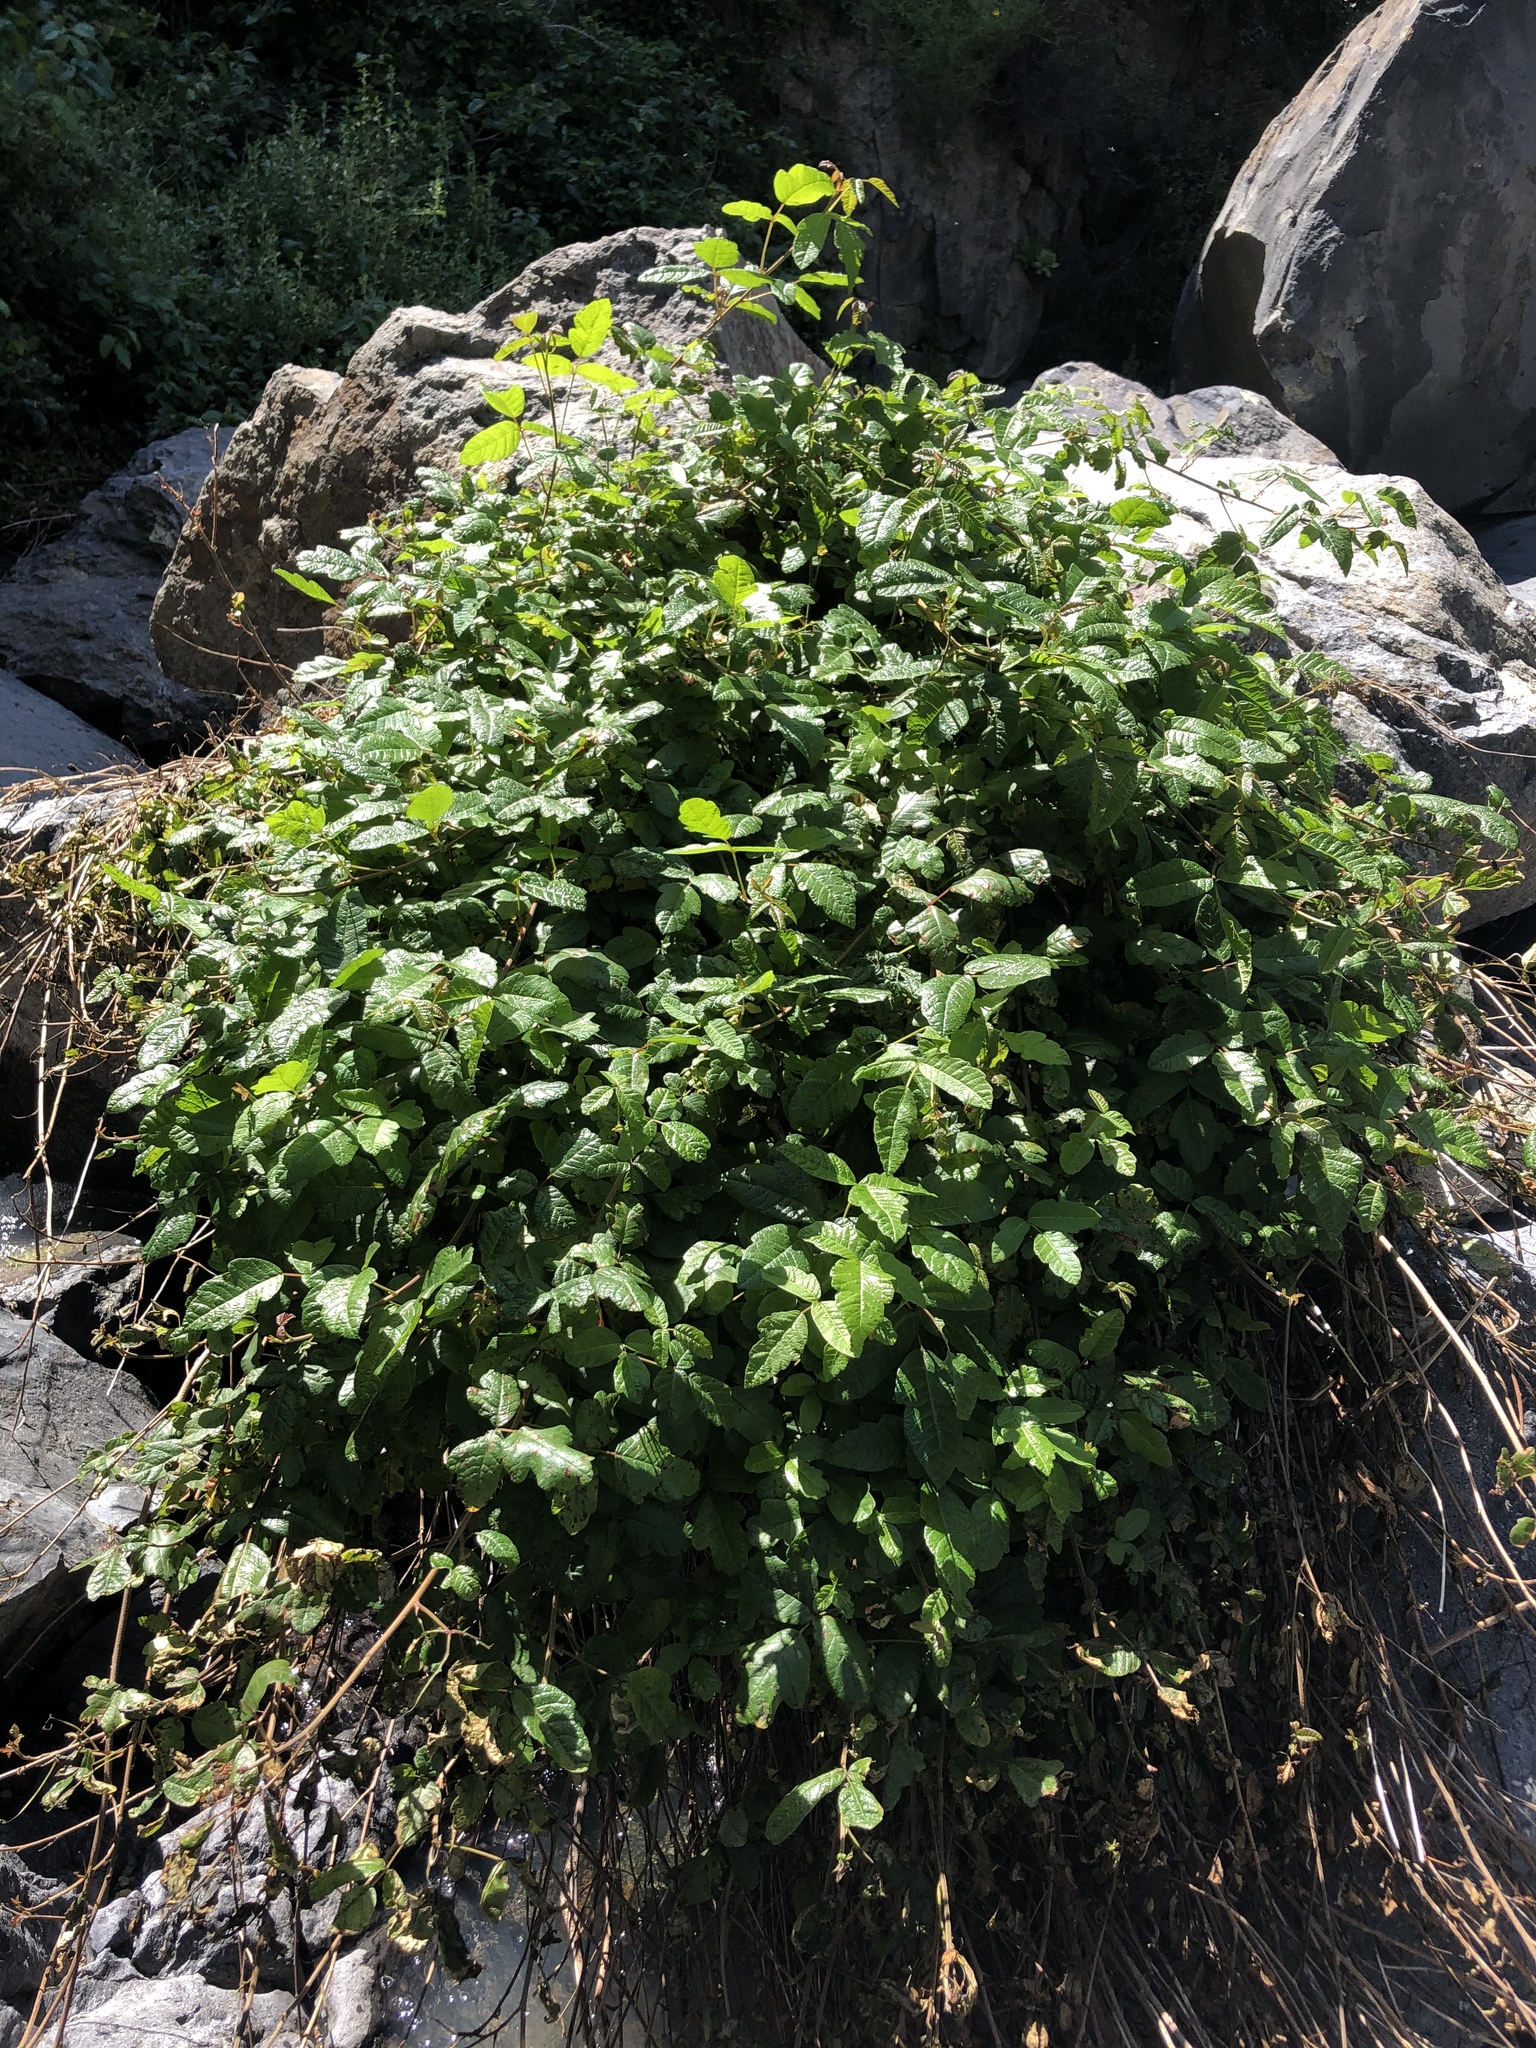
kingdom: Plantae
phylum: Tracheophyta
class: Magnoliopsida
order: Sapindales
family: Anacardiaceae
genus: Toxicodendron
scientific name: Toxicodendron diversilobum
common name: Pacific poison-oak
